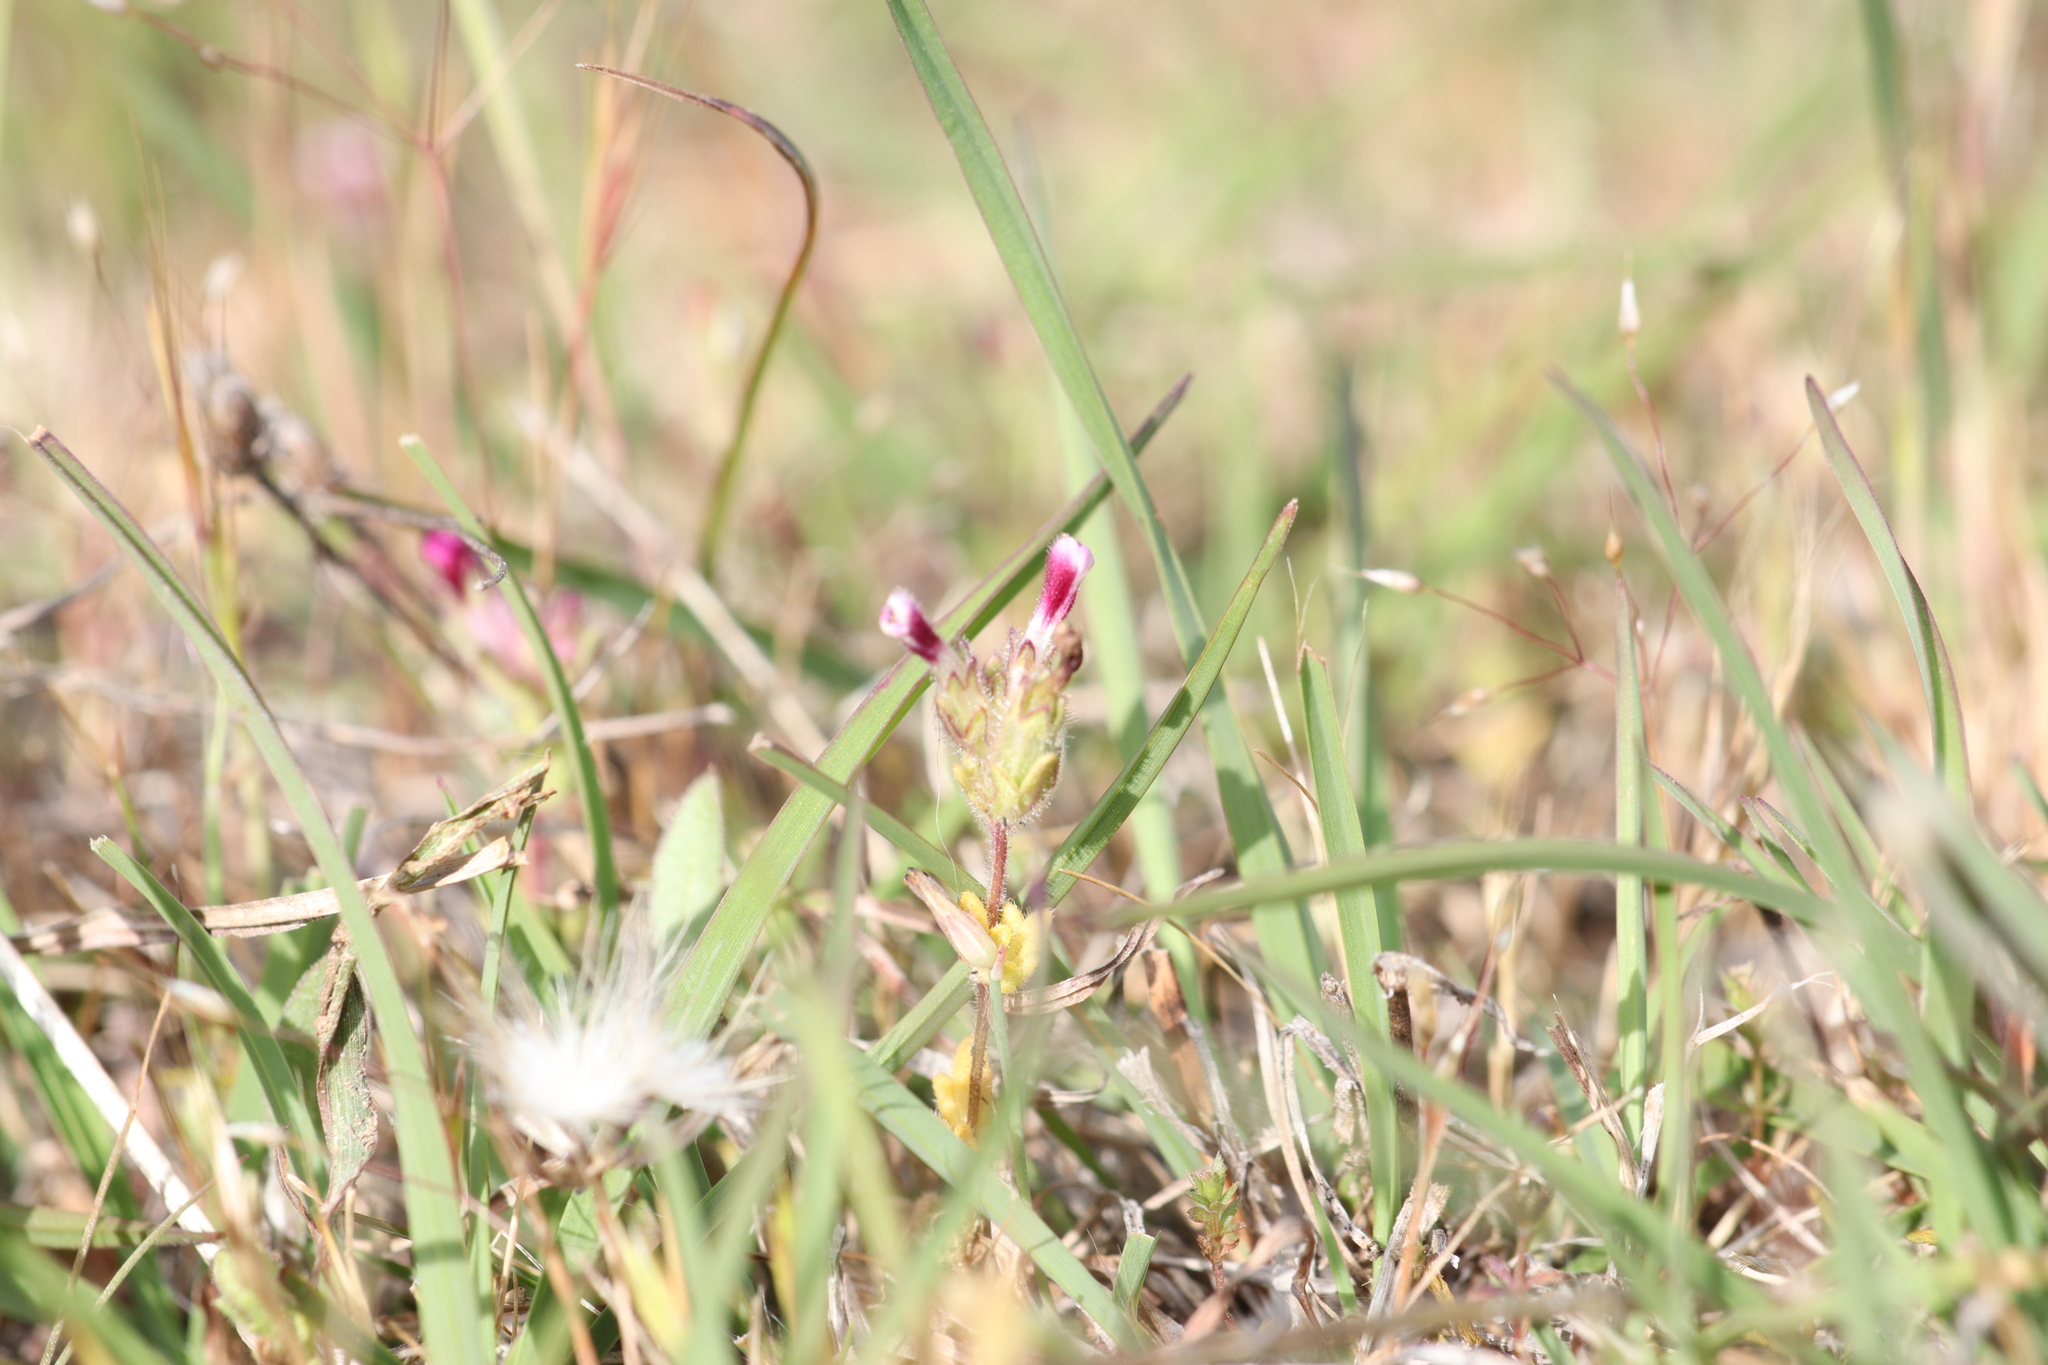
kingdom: Plantae
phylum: Tracheophyta
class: Magnoliopsida
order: Lamiales
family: Orobanchaceae
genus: Parentucellia
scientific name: Parentucellia latifolia
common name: Broadleaf glandweed
